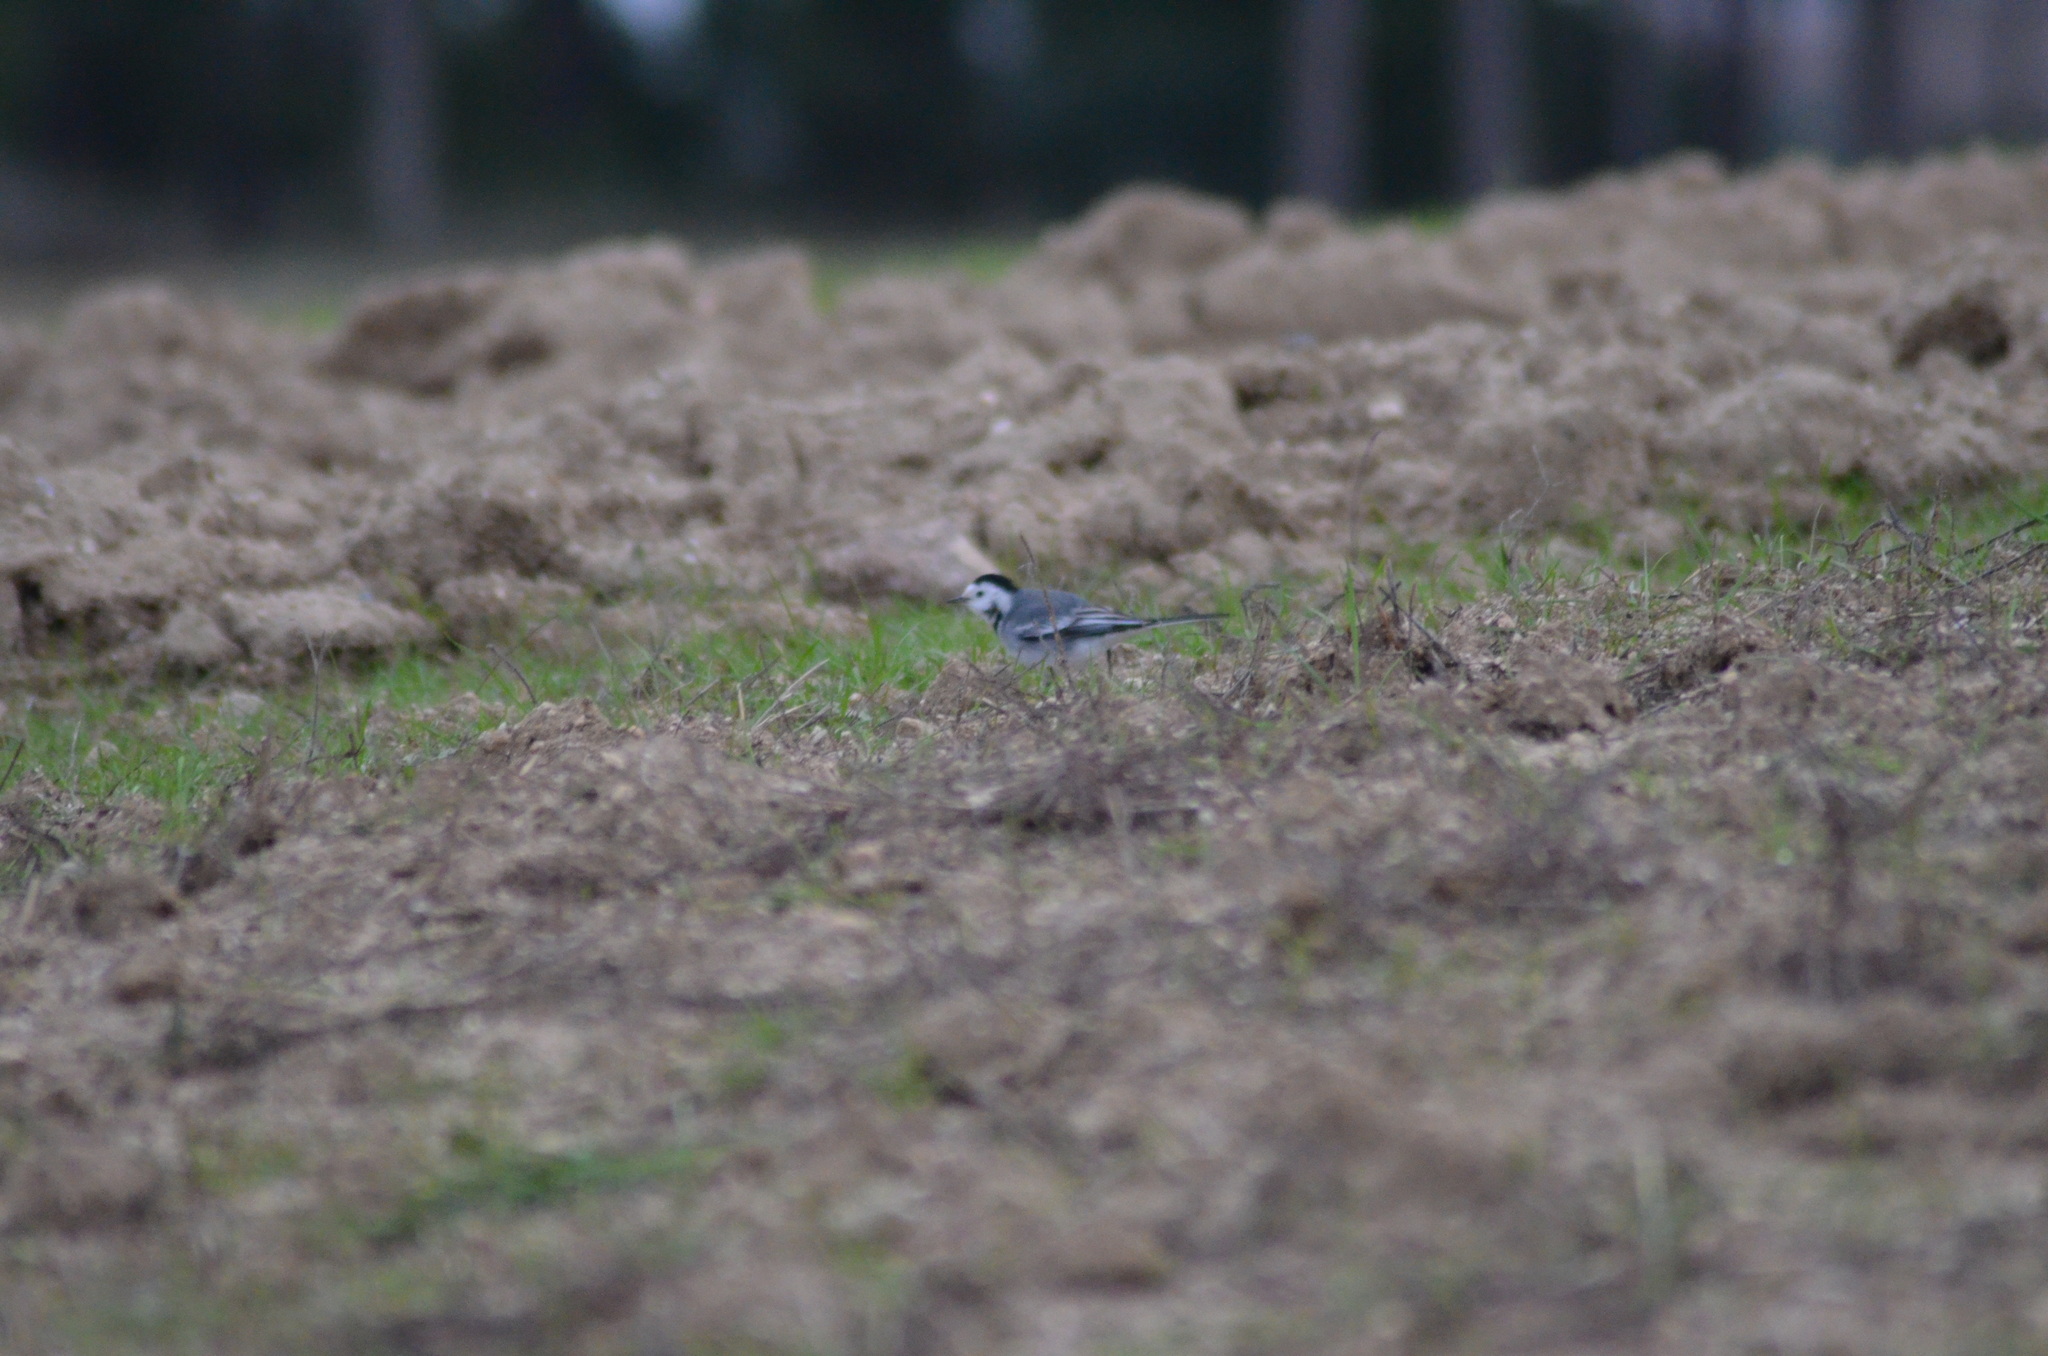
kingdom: Animalia
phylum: Chordata
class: Aves
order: Passeriformes
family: Motacillidae
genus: Motacilla
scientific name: Motacilla alba
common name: White wagtail
